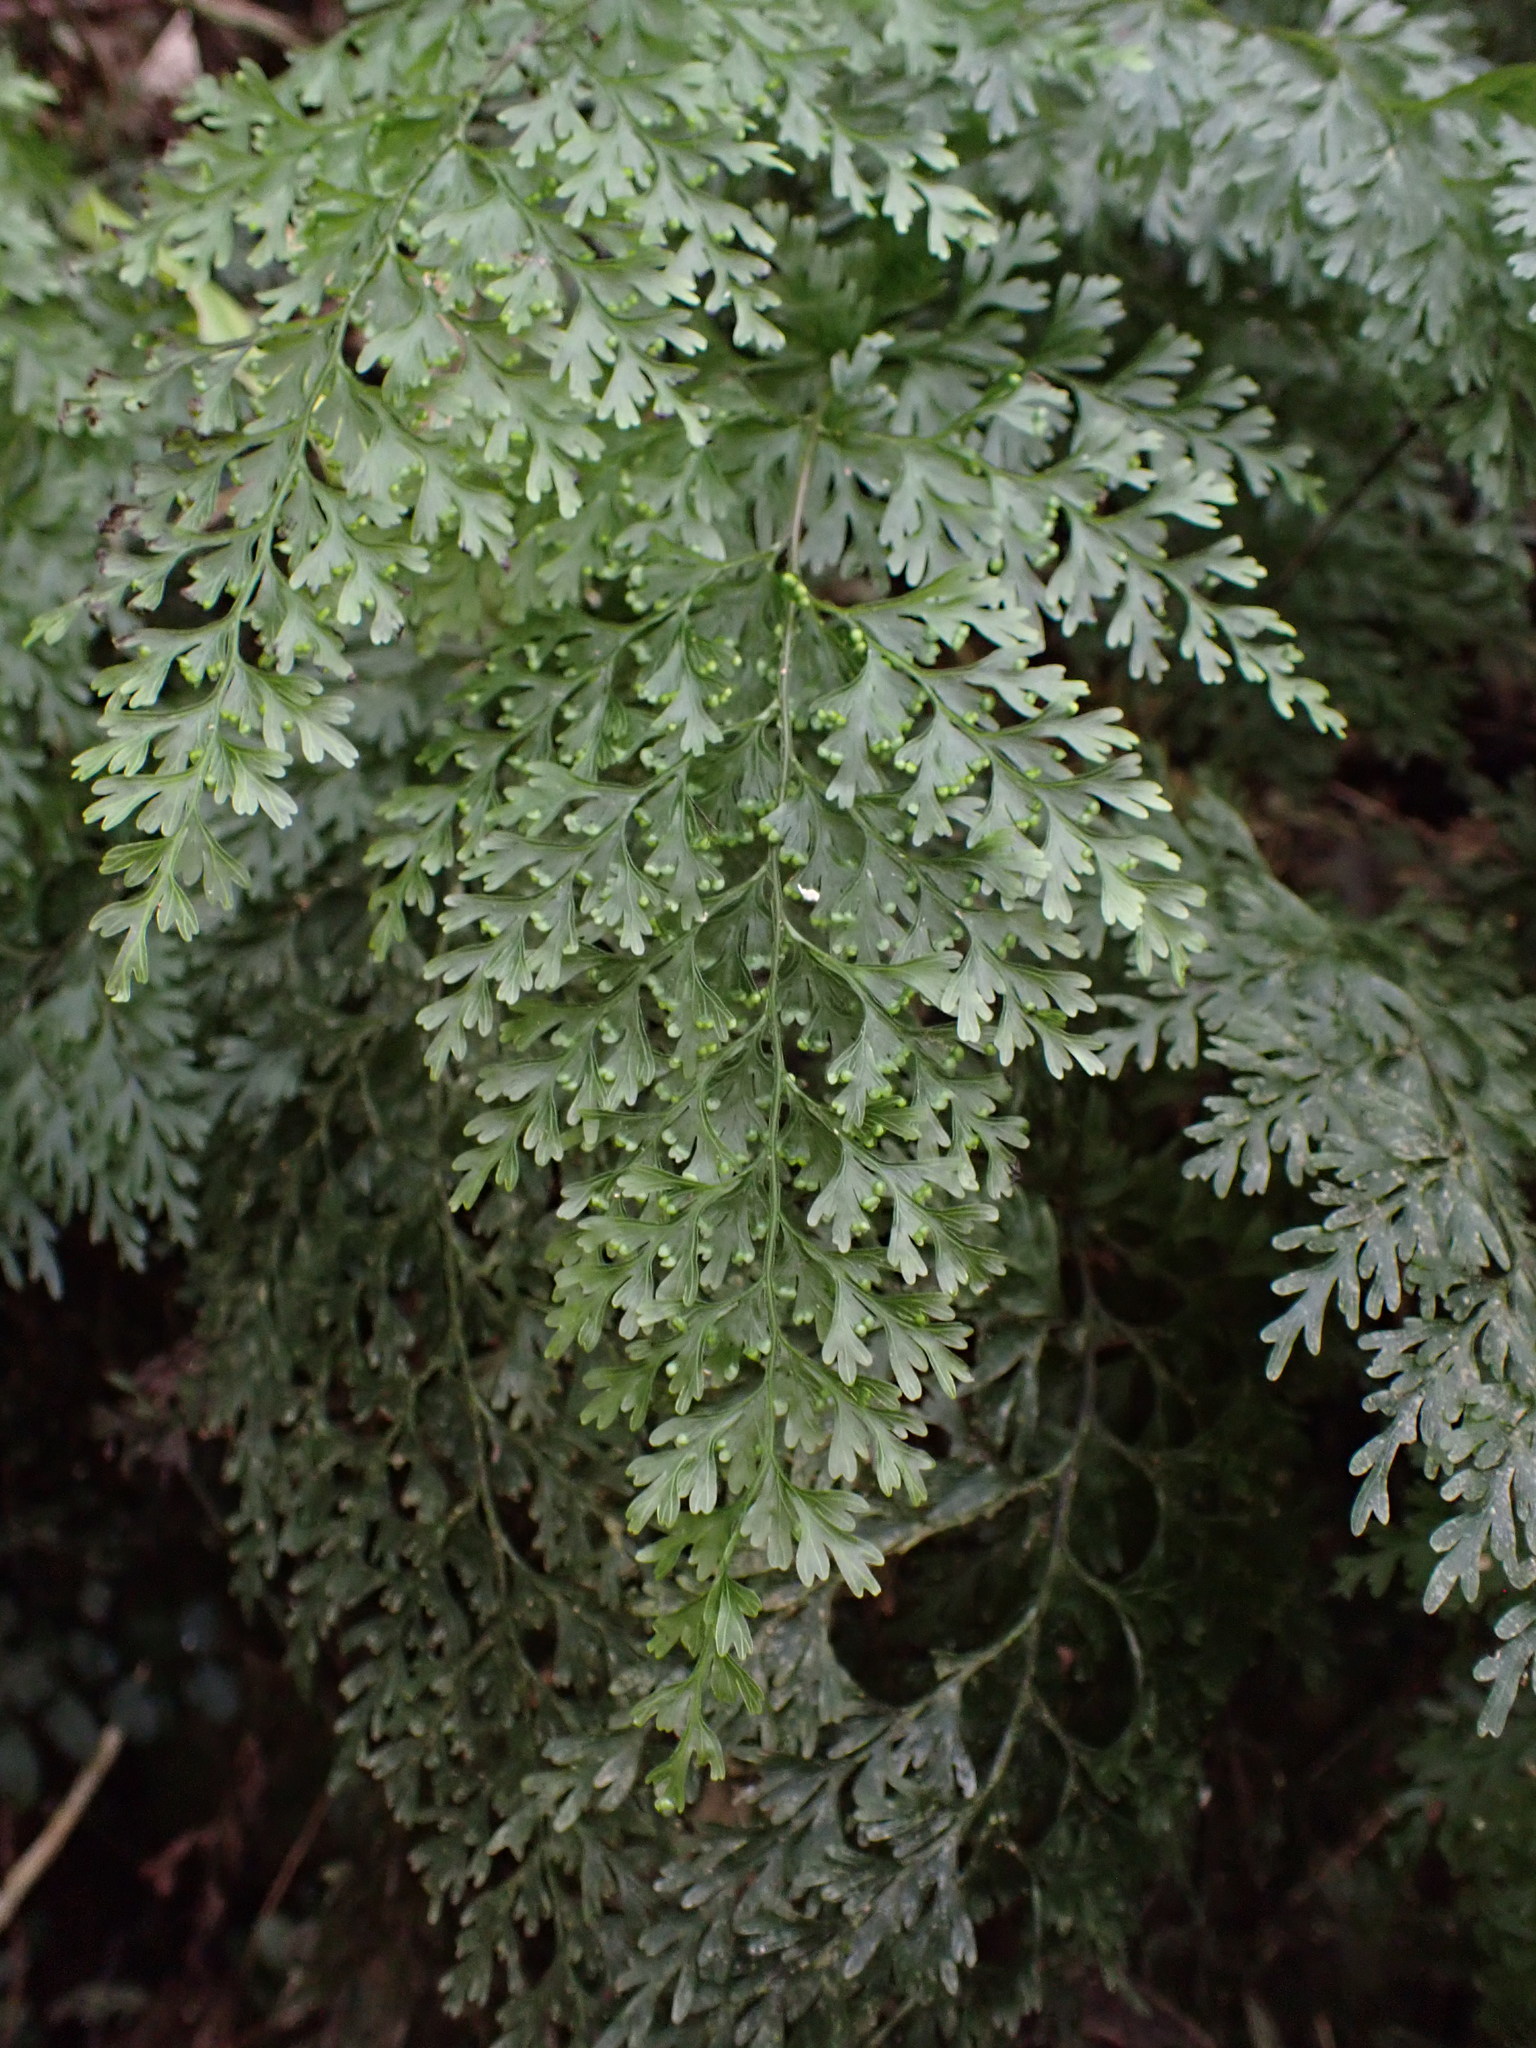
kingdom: Plantae
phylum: Tracheophyta
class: Polypodiopsida
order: Hymenophyllales
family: Hymenophyllaceae
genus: Hymenophyllum
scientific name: Hymenophyllum demissum
